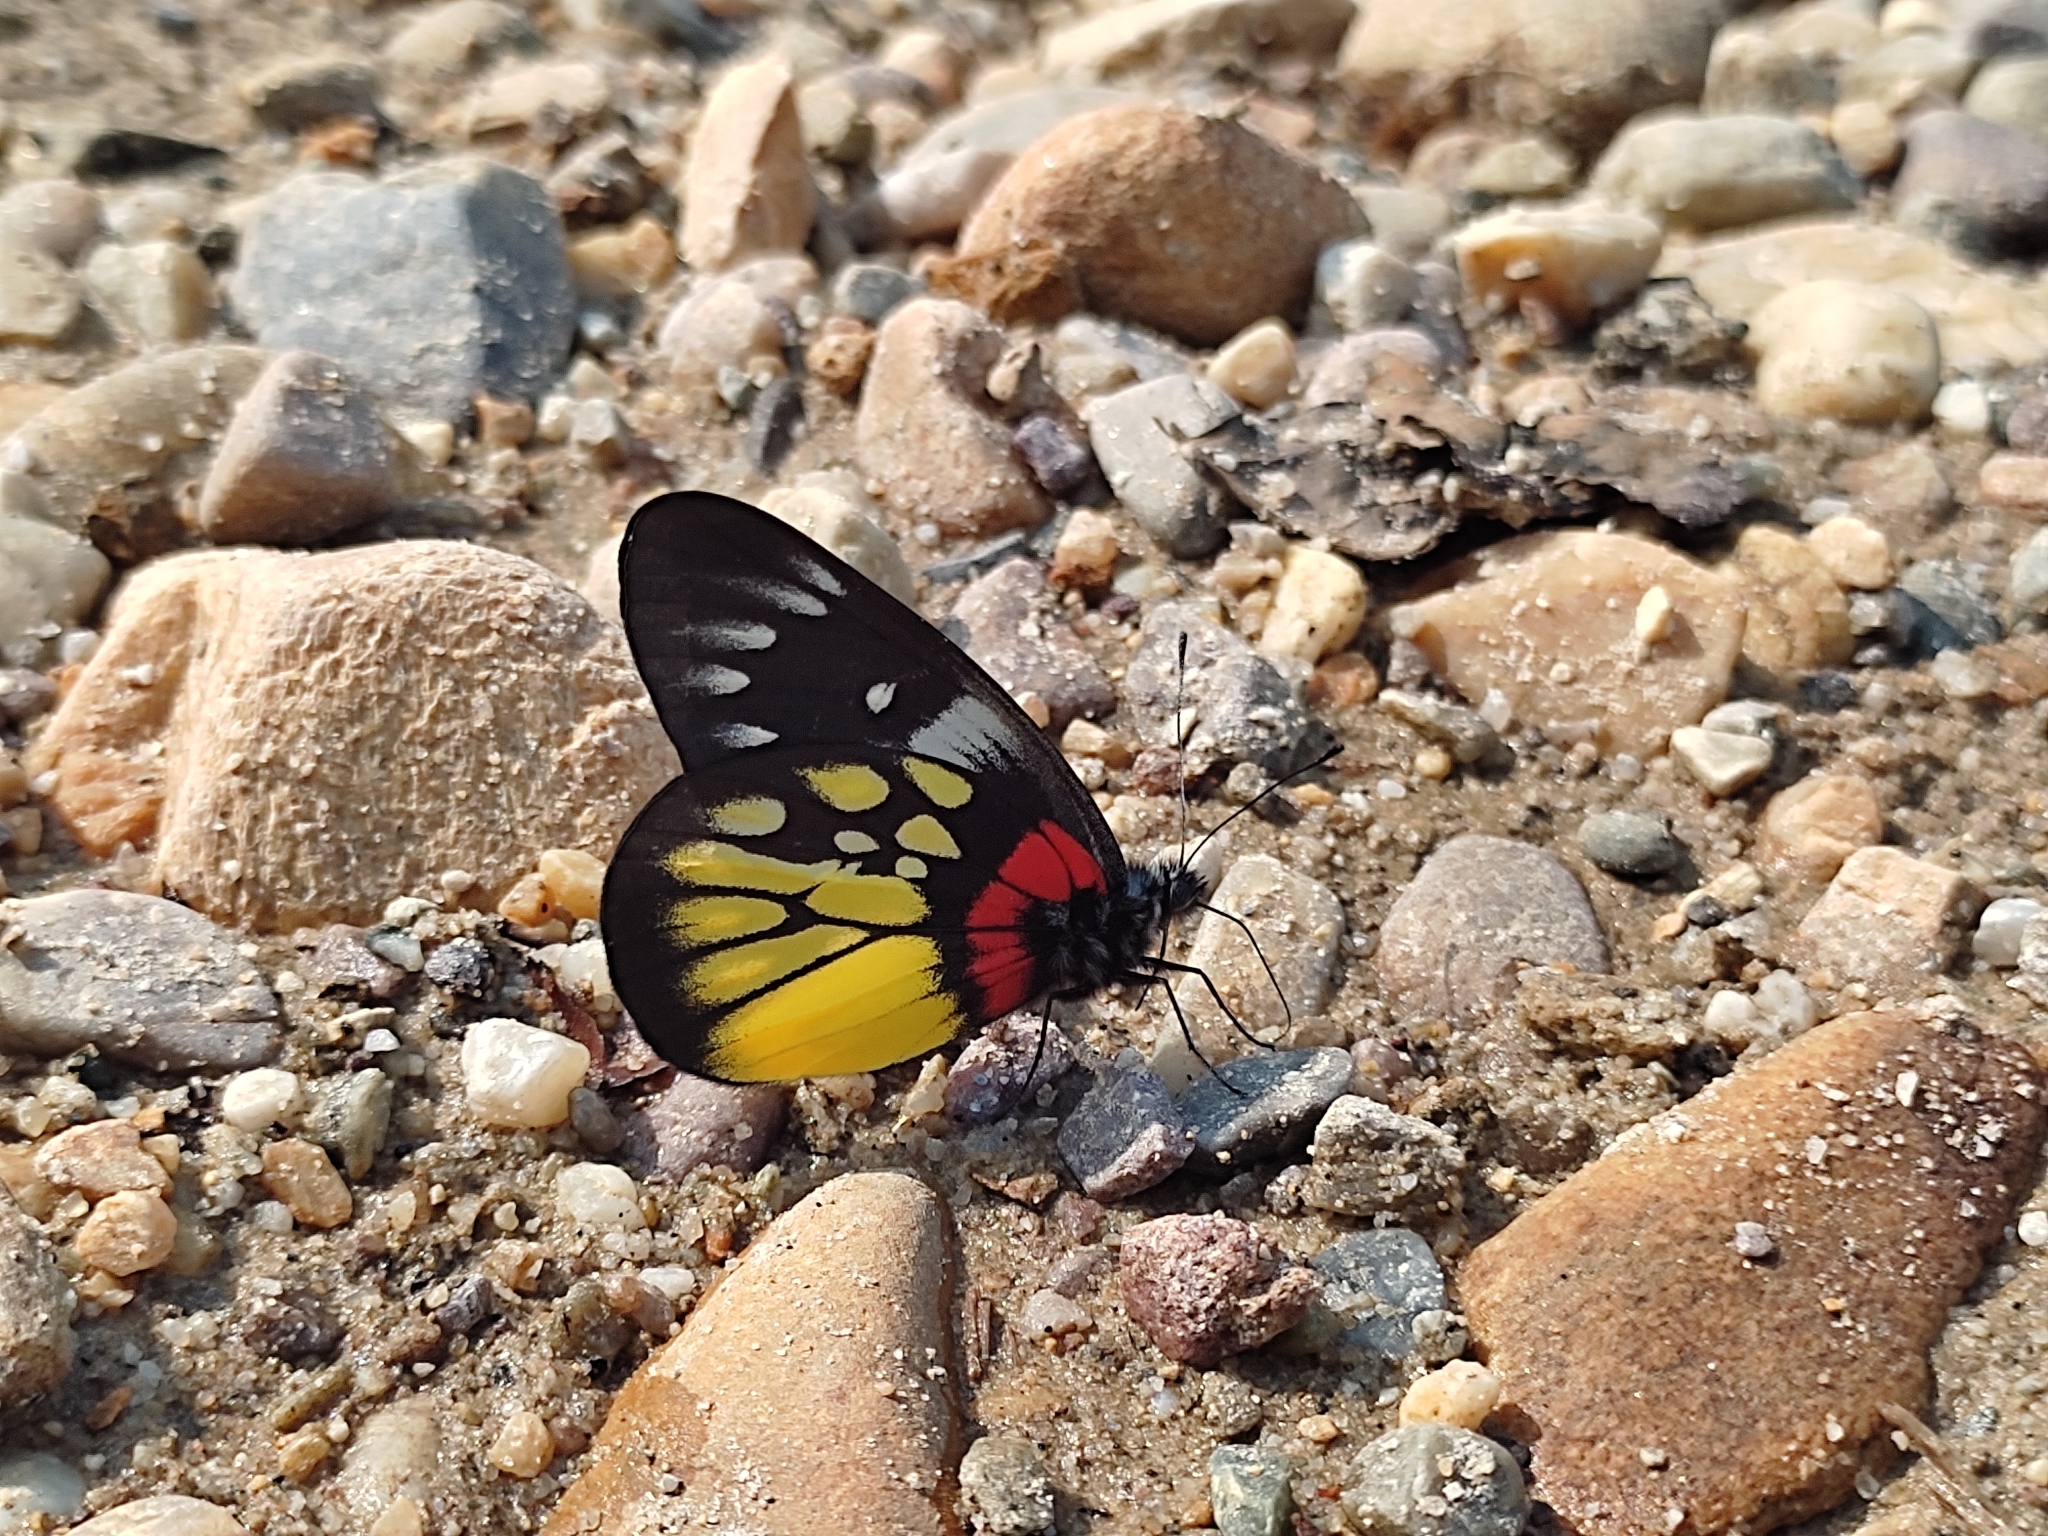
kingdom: Animalia
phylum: Arthropoda
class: Insecta
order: Lepidoptera
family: Pieridae
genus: Delias
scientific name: Delias pasithoe
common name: Red-base jezebel
